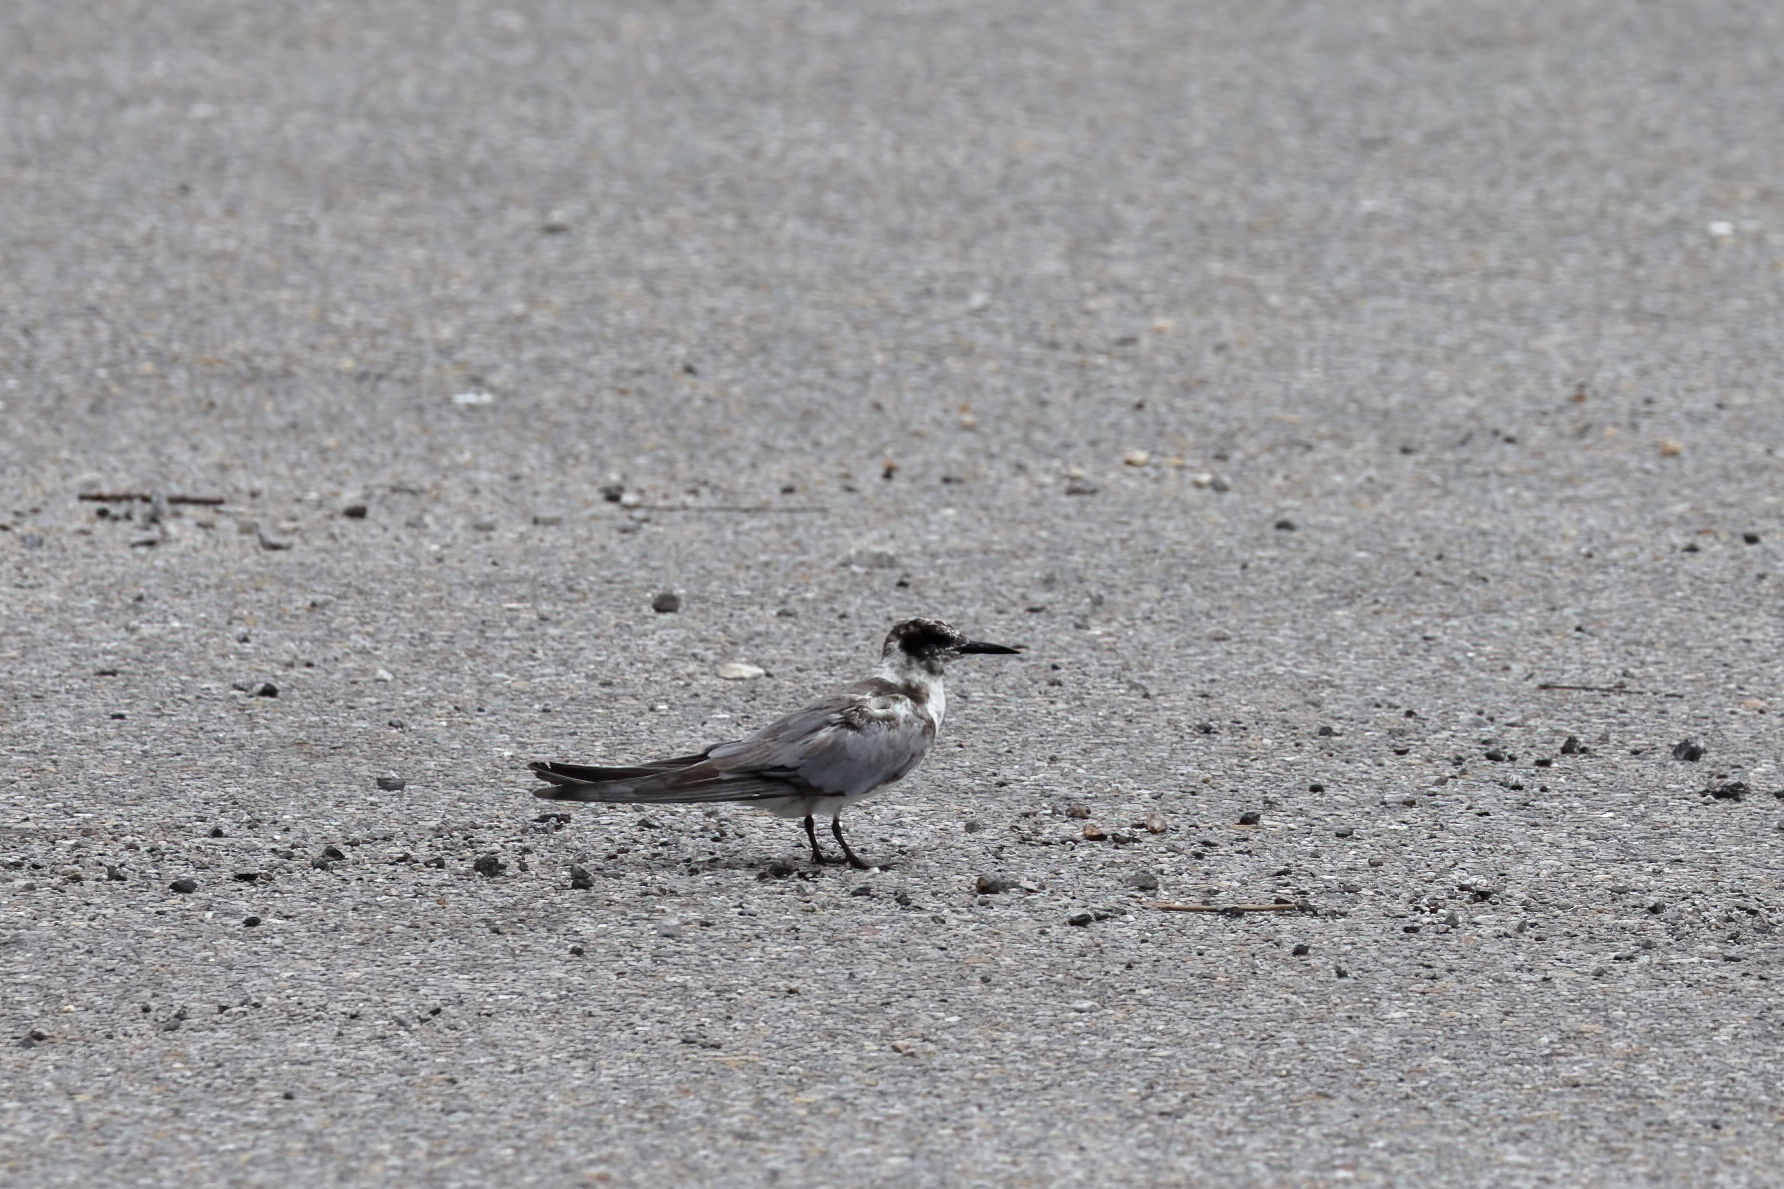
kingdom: Animalia
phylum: Chordata
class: Aves
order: Charadriiformes
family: Laridae
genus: Chlidonias
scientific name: Chlidonias niger
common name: Black tern
